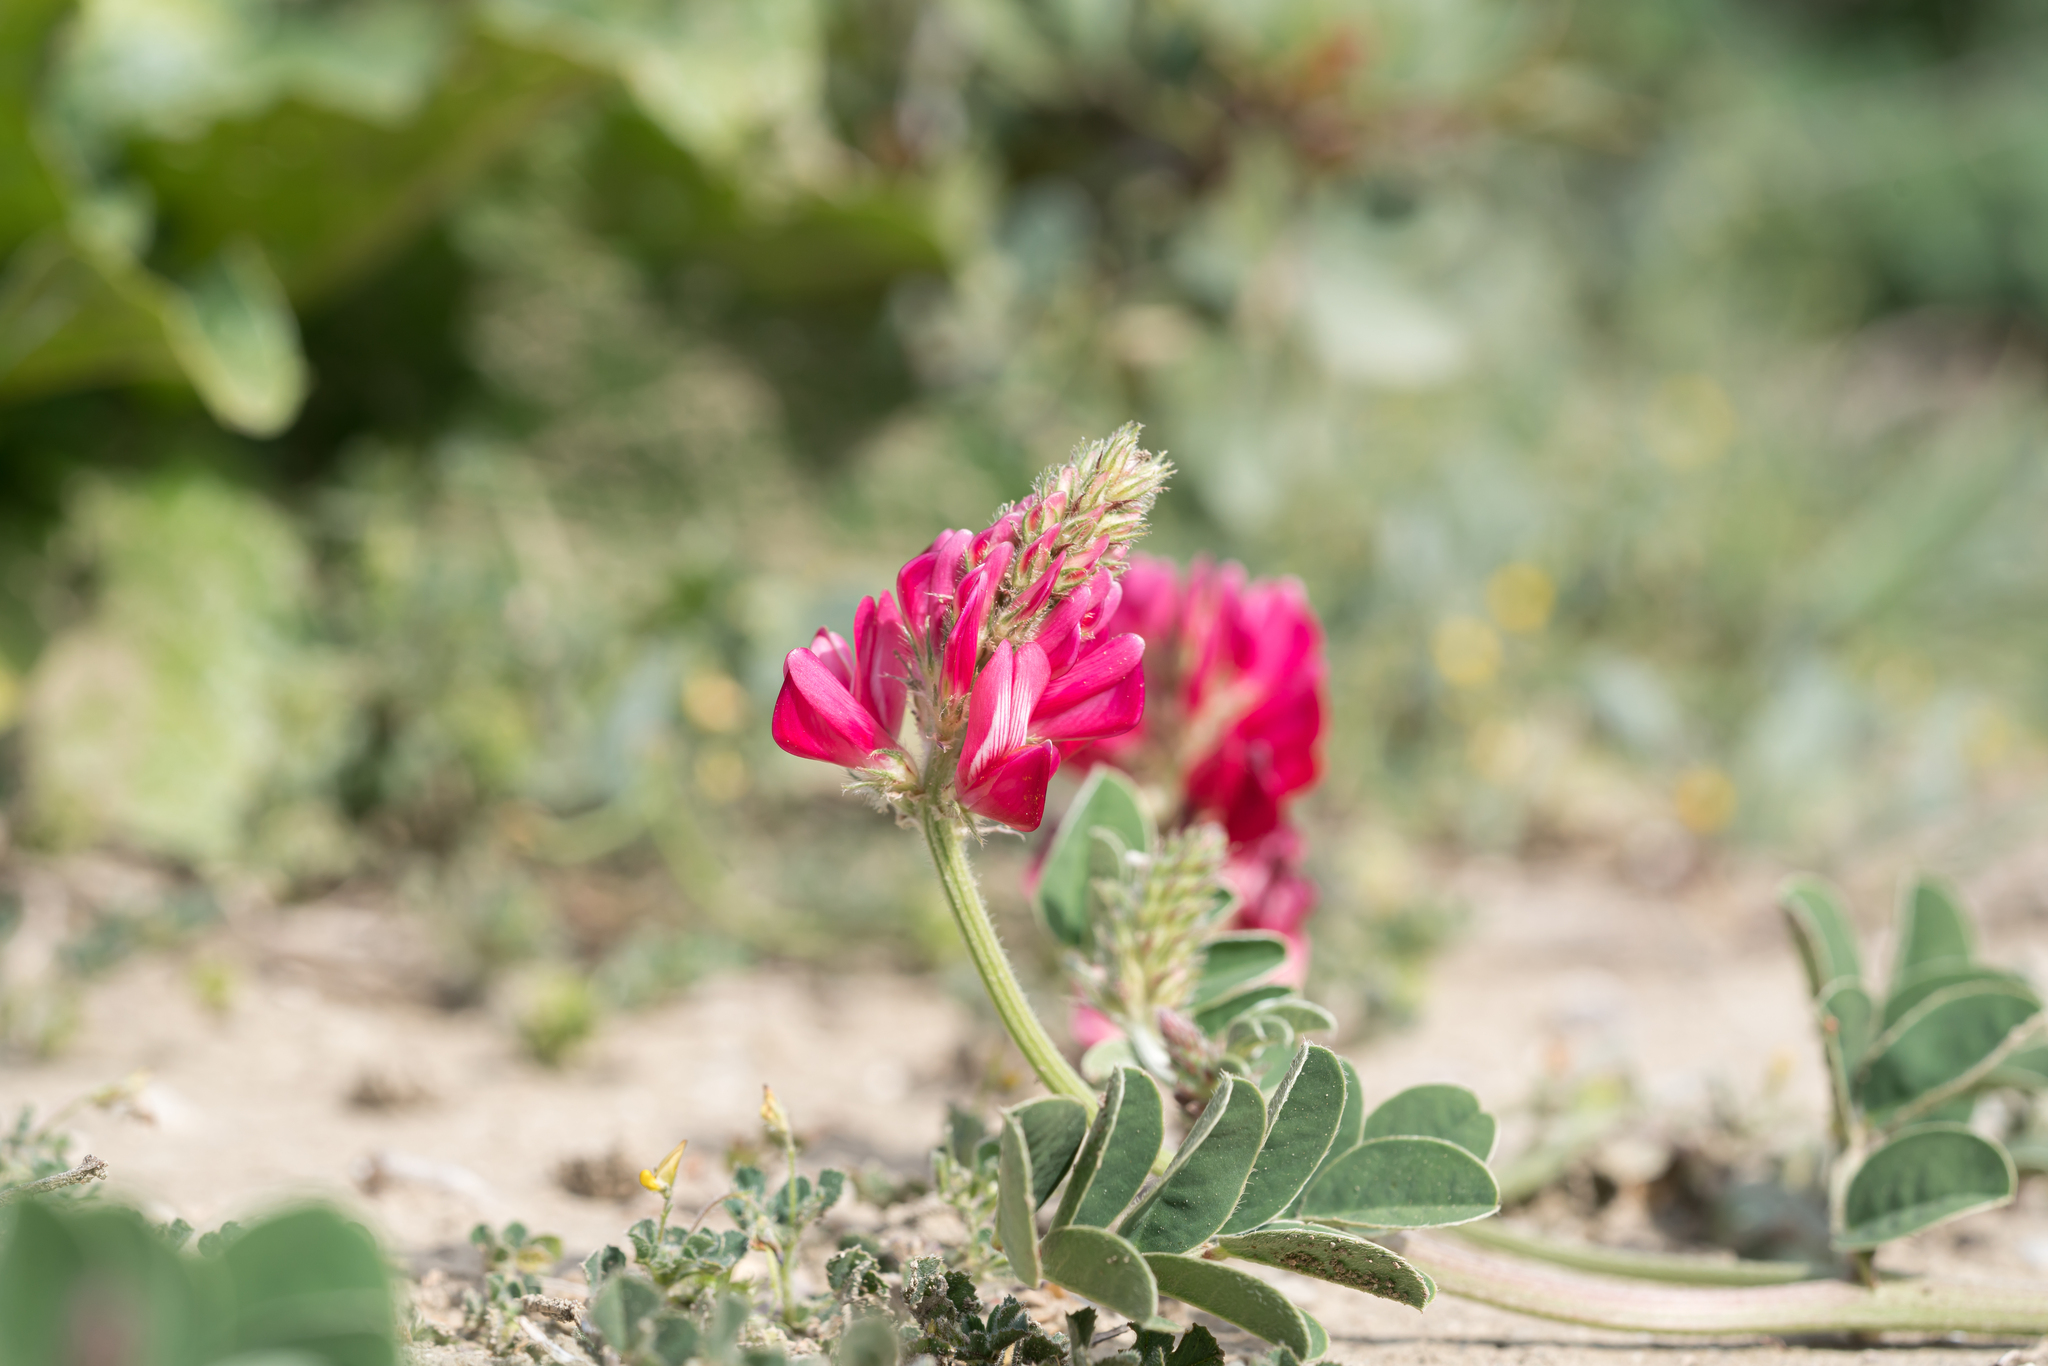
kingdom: Plantae
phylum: Tracheophyta
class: Magnoliopsida
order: Fabales
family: Fabaceae
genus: Sulla
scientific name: Sulla coronaria
